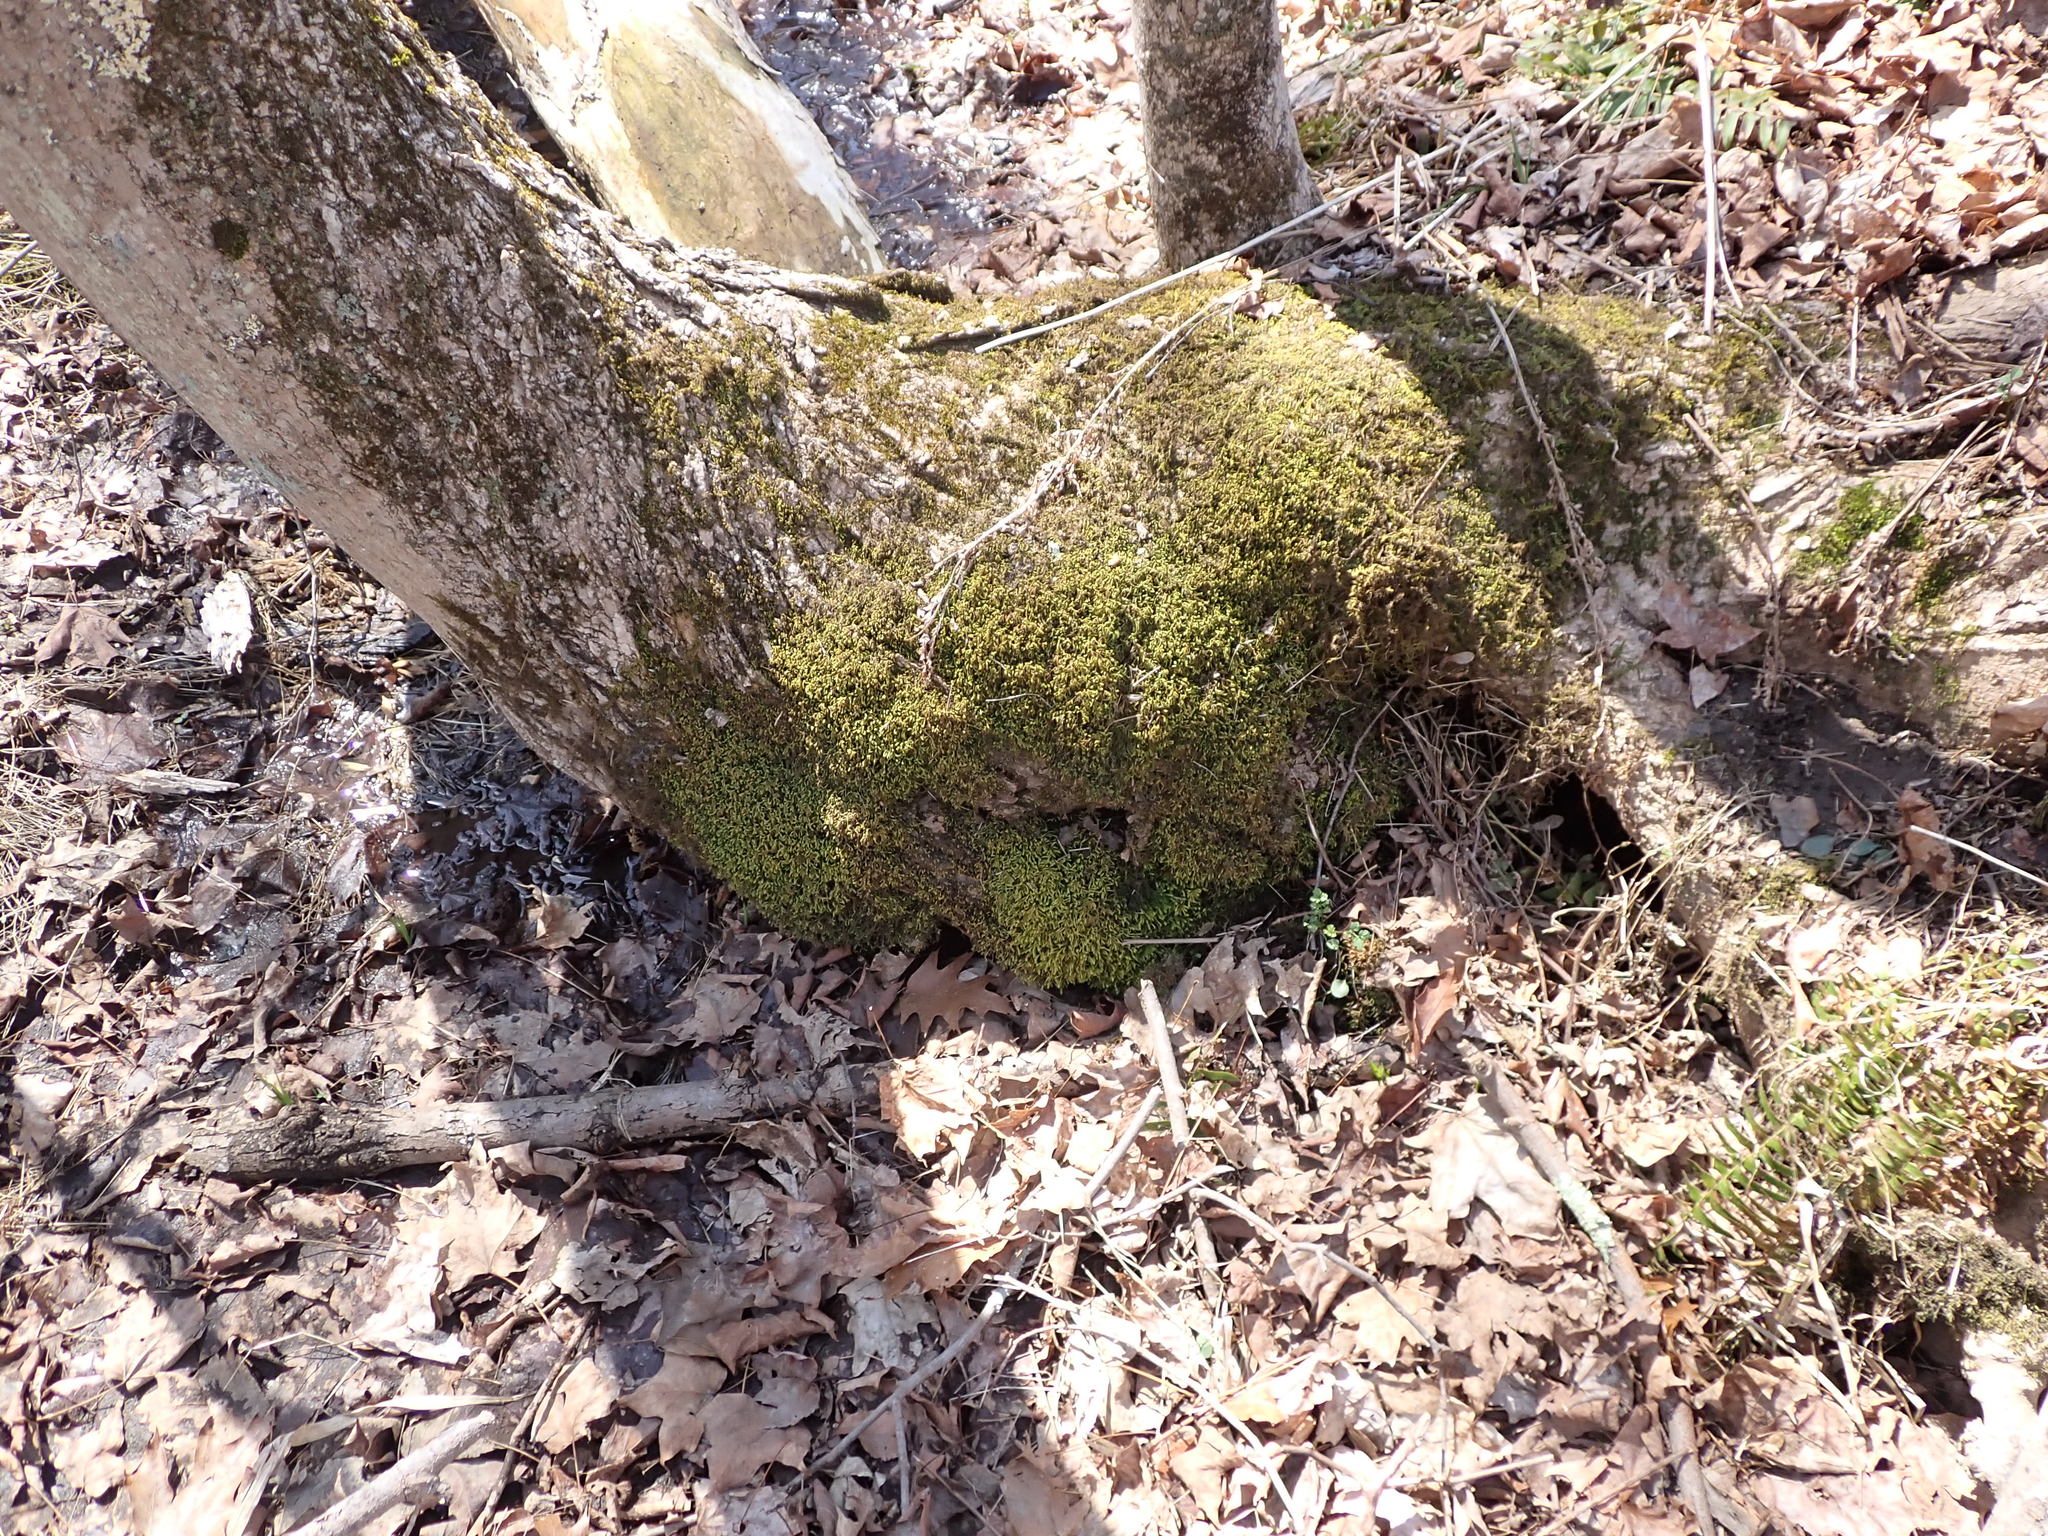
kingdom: Plantae
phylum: Bryophyta
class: Bryopsida
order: Hypnales
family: Neckeraceae
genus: Pseudanomodon
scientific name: Pseudanomodon attenuatus
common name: Tree-skirt moss
